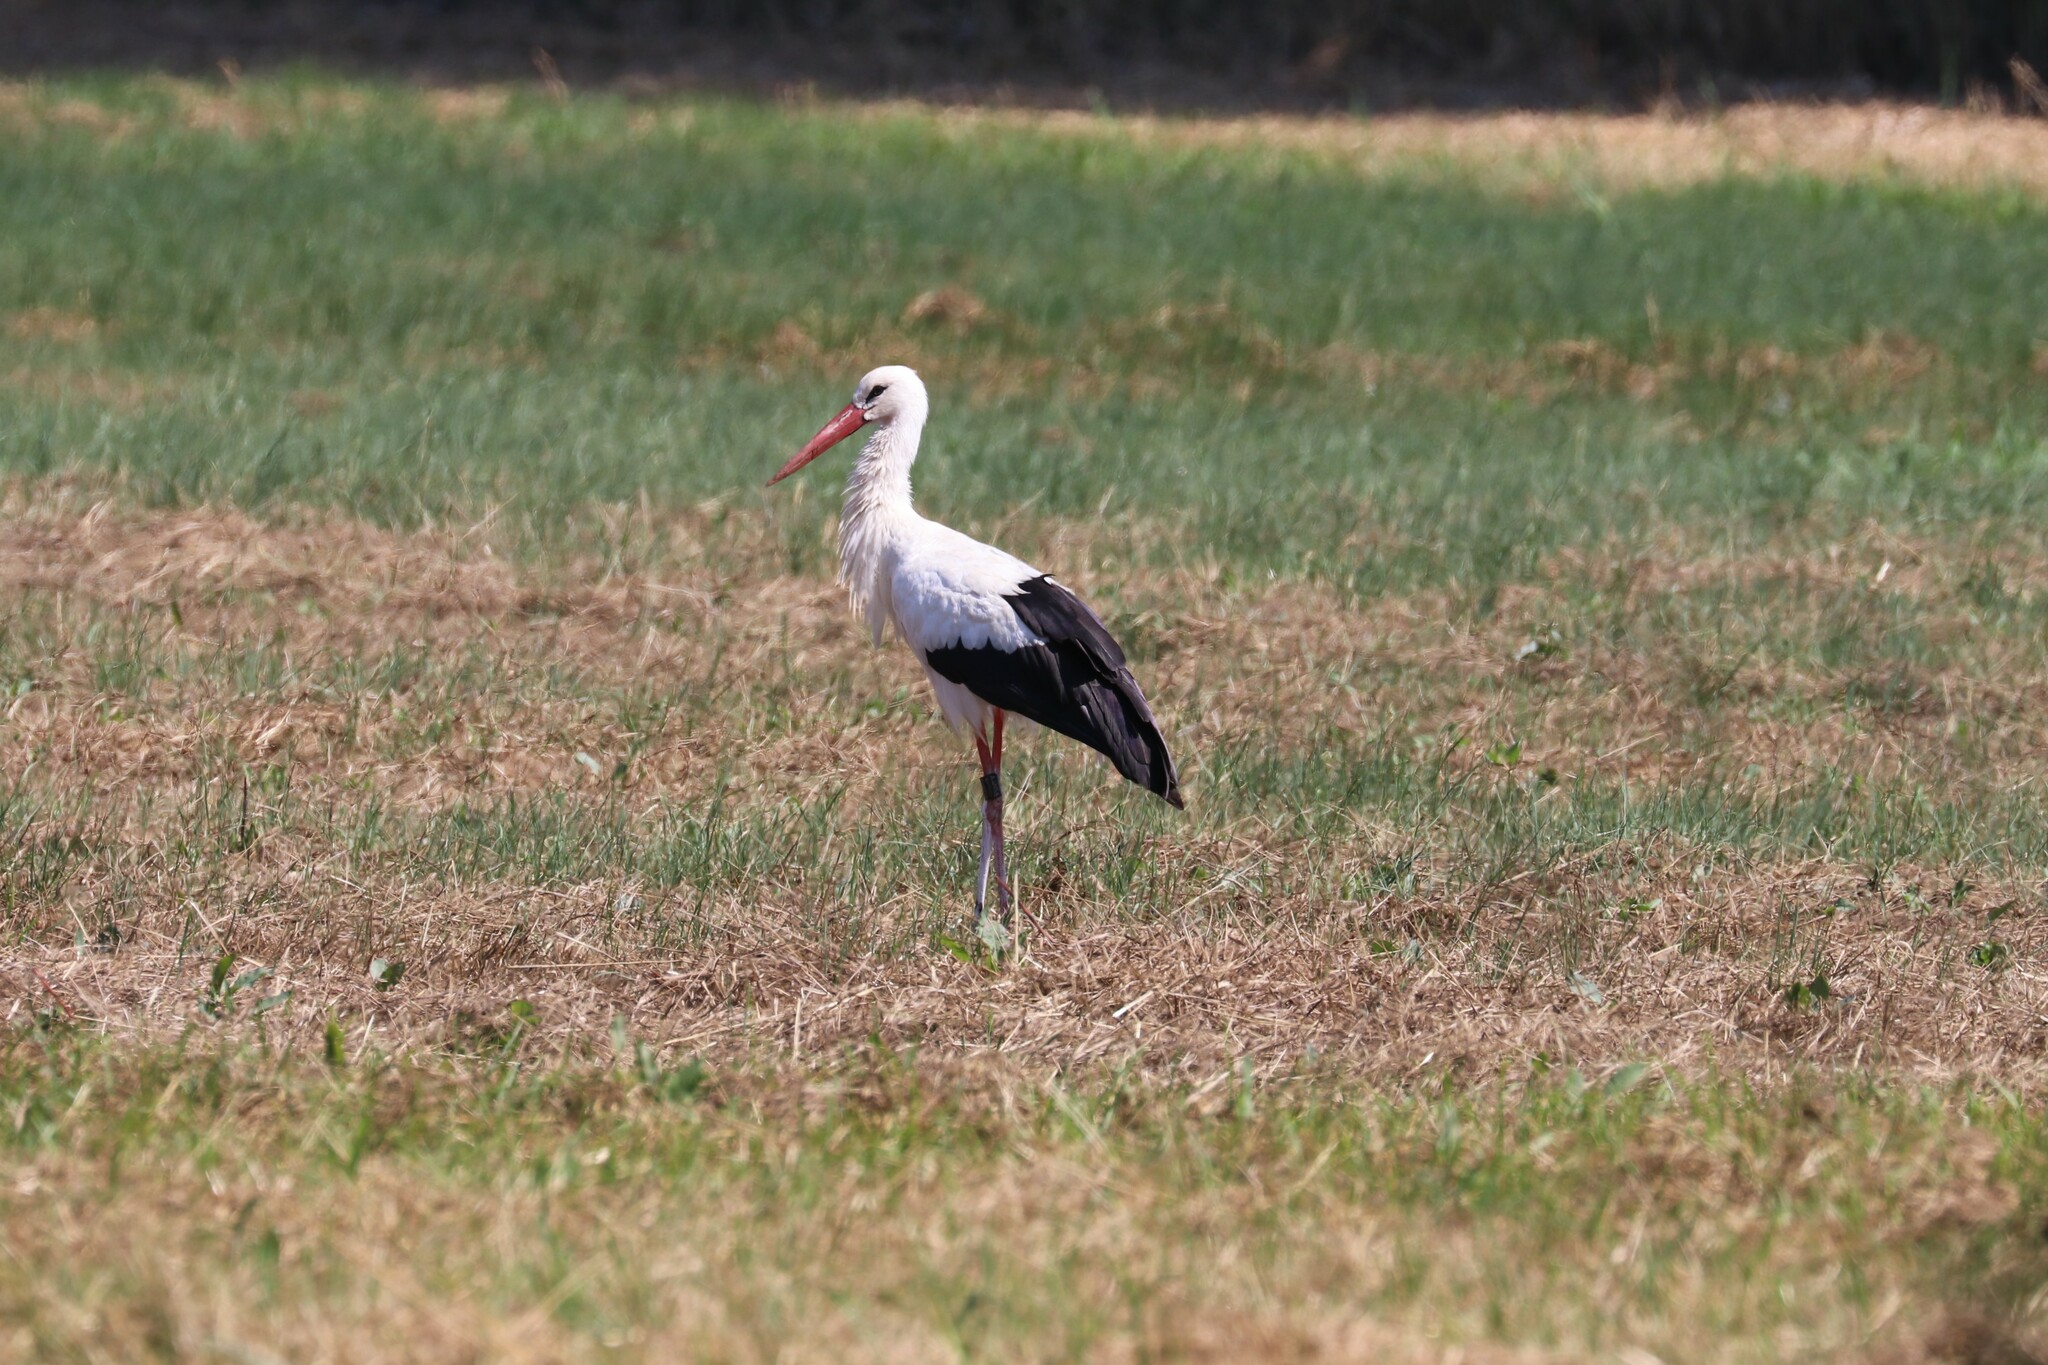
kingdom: Animalia
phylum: Chordata
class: Aves
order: Ciconiiformes
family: Ciconiidae
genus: Ciconia
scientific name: Ciconia ciconia
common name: White stork
